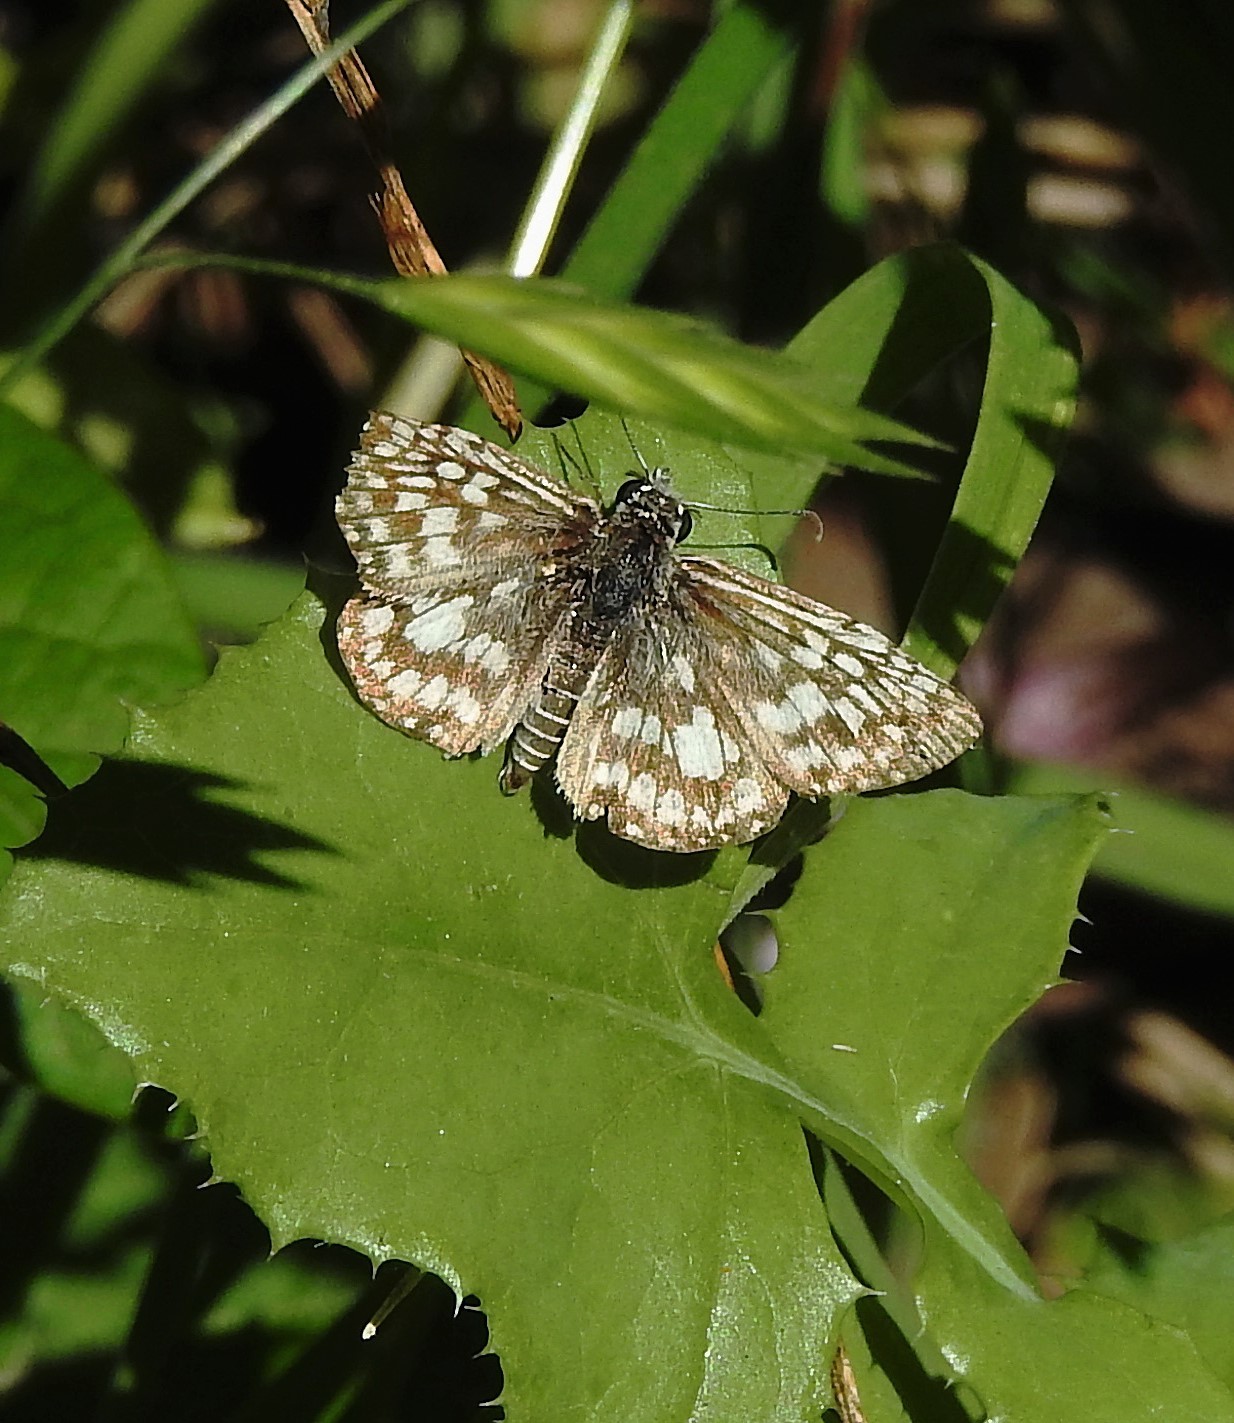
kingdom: Animalia
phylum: Arthropoda
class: Insecta
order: Lepidoptera
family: Hesperiidae
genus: Pyrgus
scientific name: Pyrgus oileus
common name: Tropical checkered-skipper
